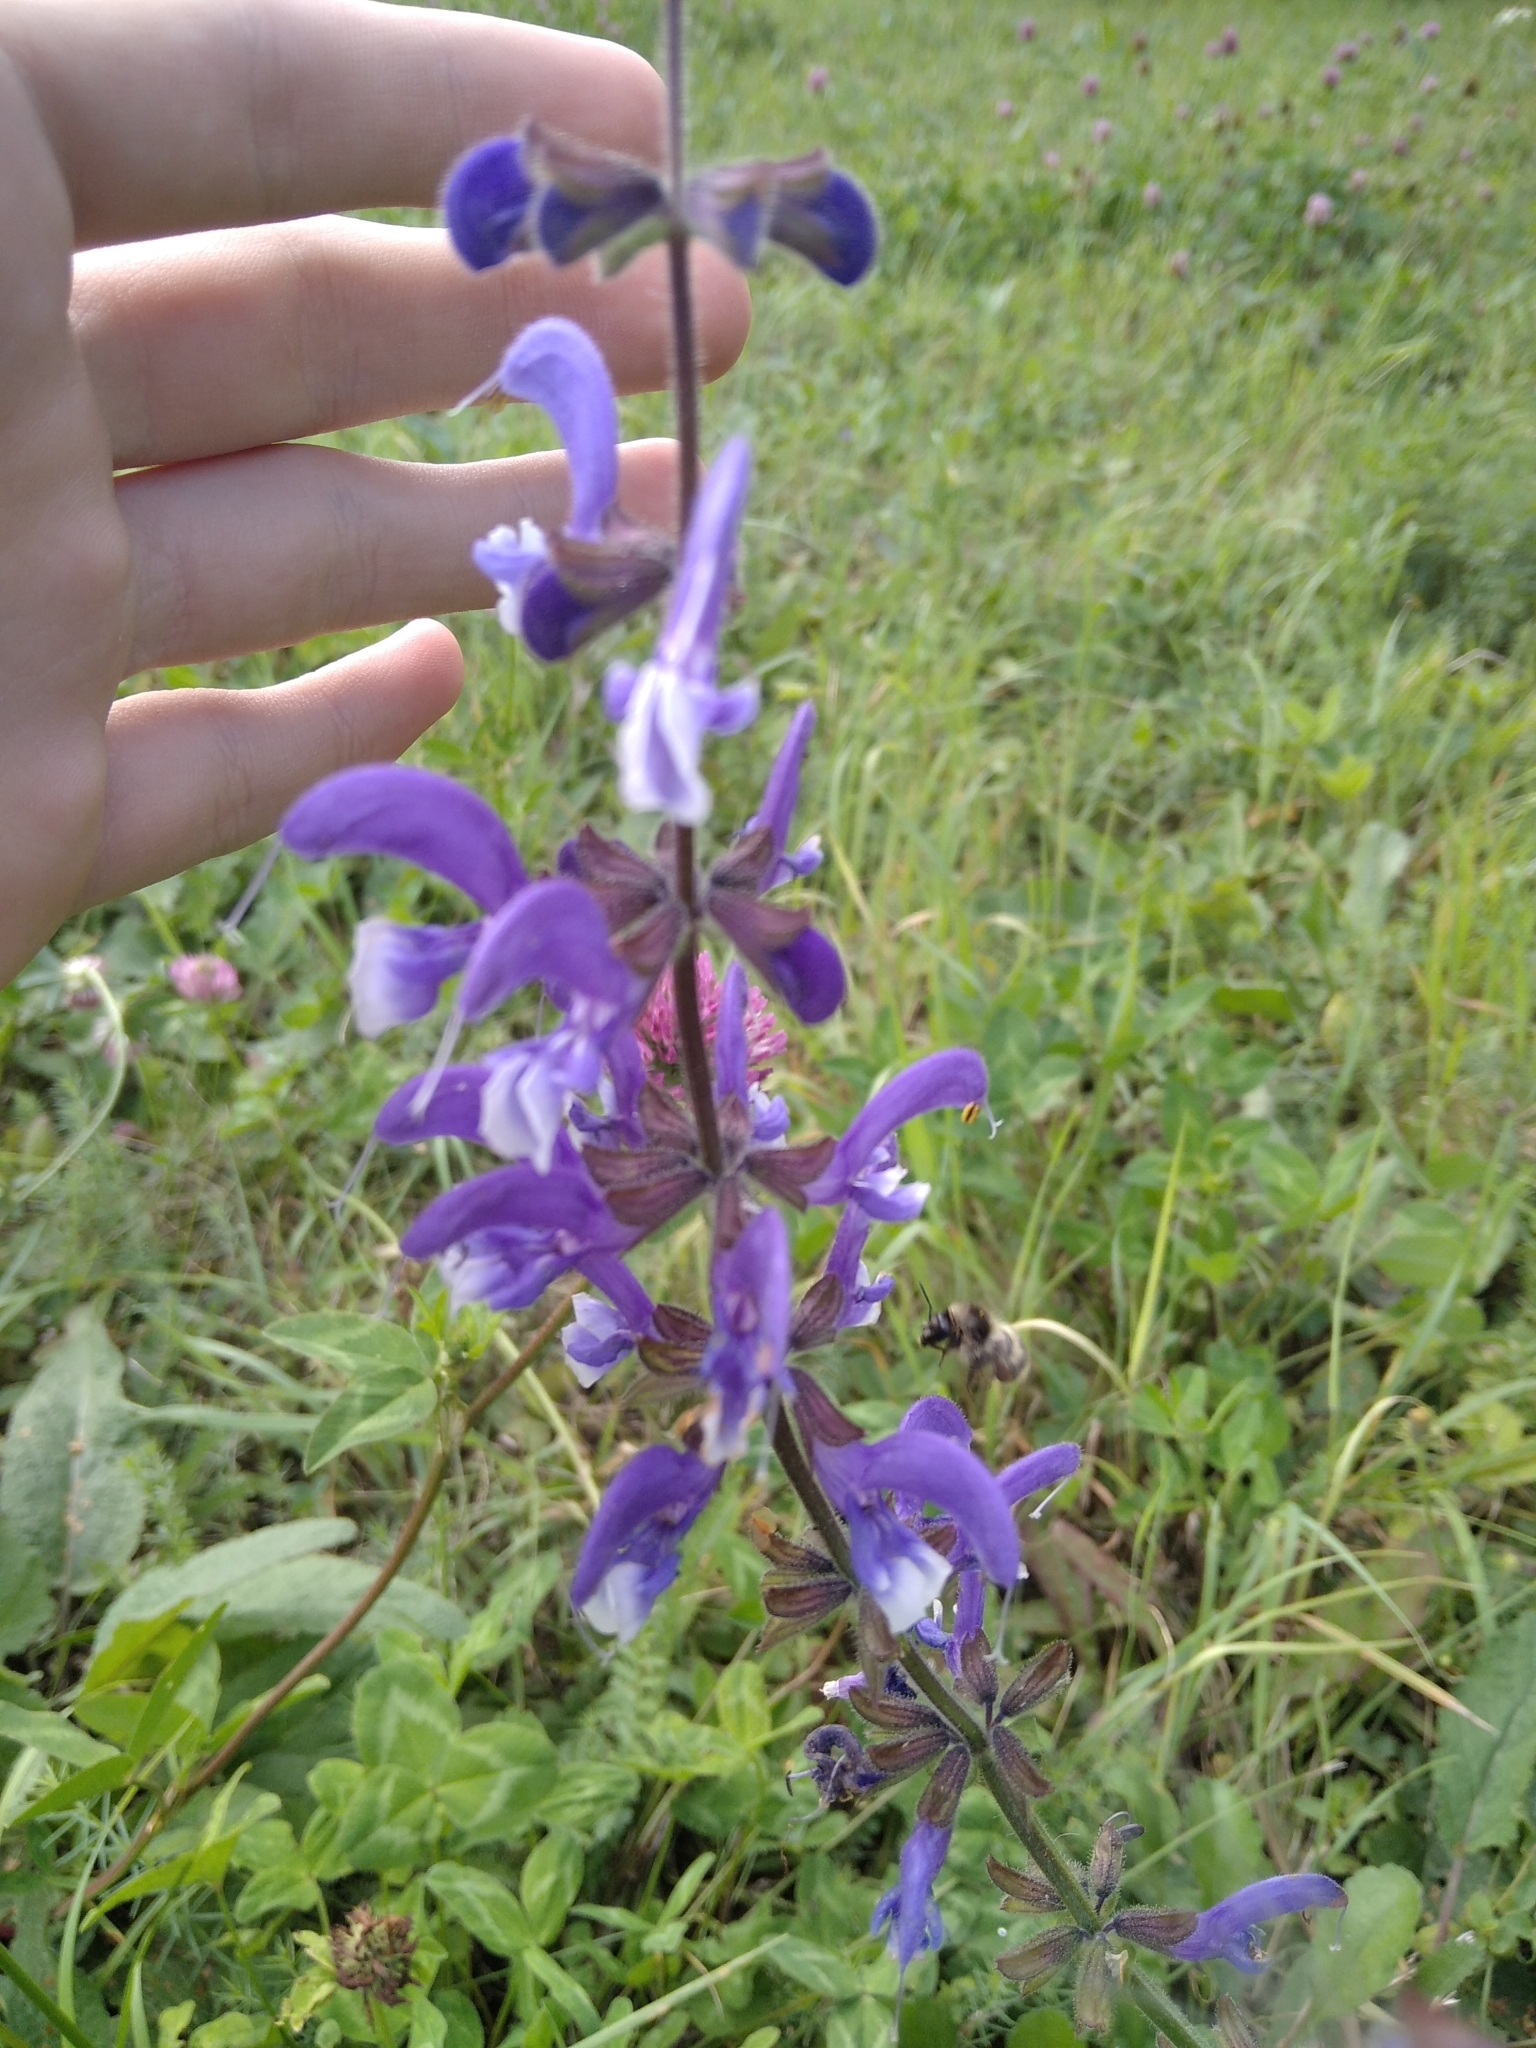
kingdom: Plantae
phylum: Tracheophyta
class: Magnoliopsida
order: Lamiales
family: Lamiaceae
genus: Salvia
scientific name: Salvia pratensis
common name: Meadow sage
